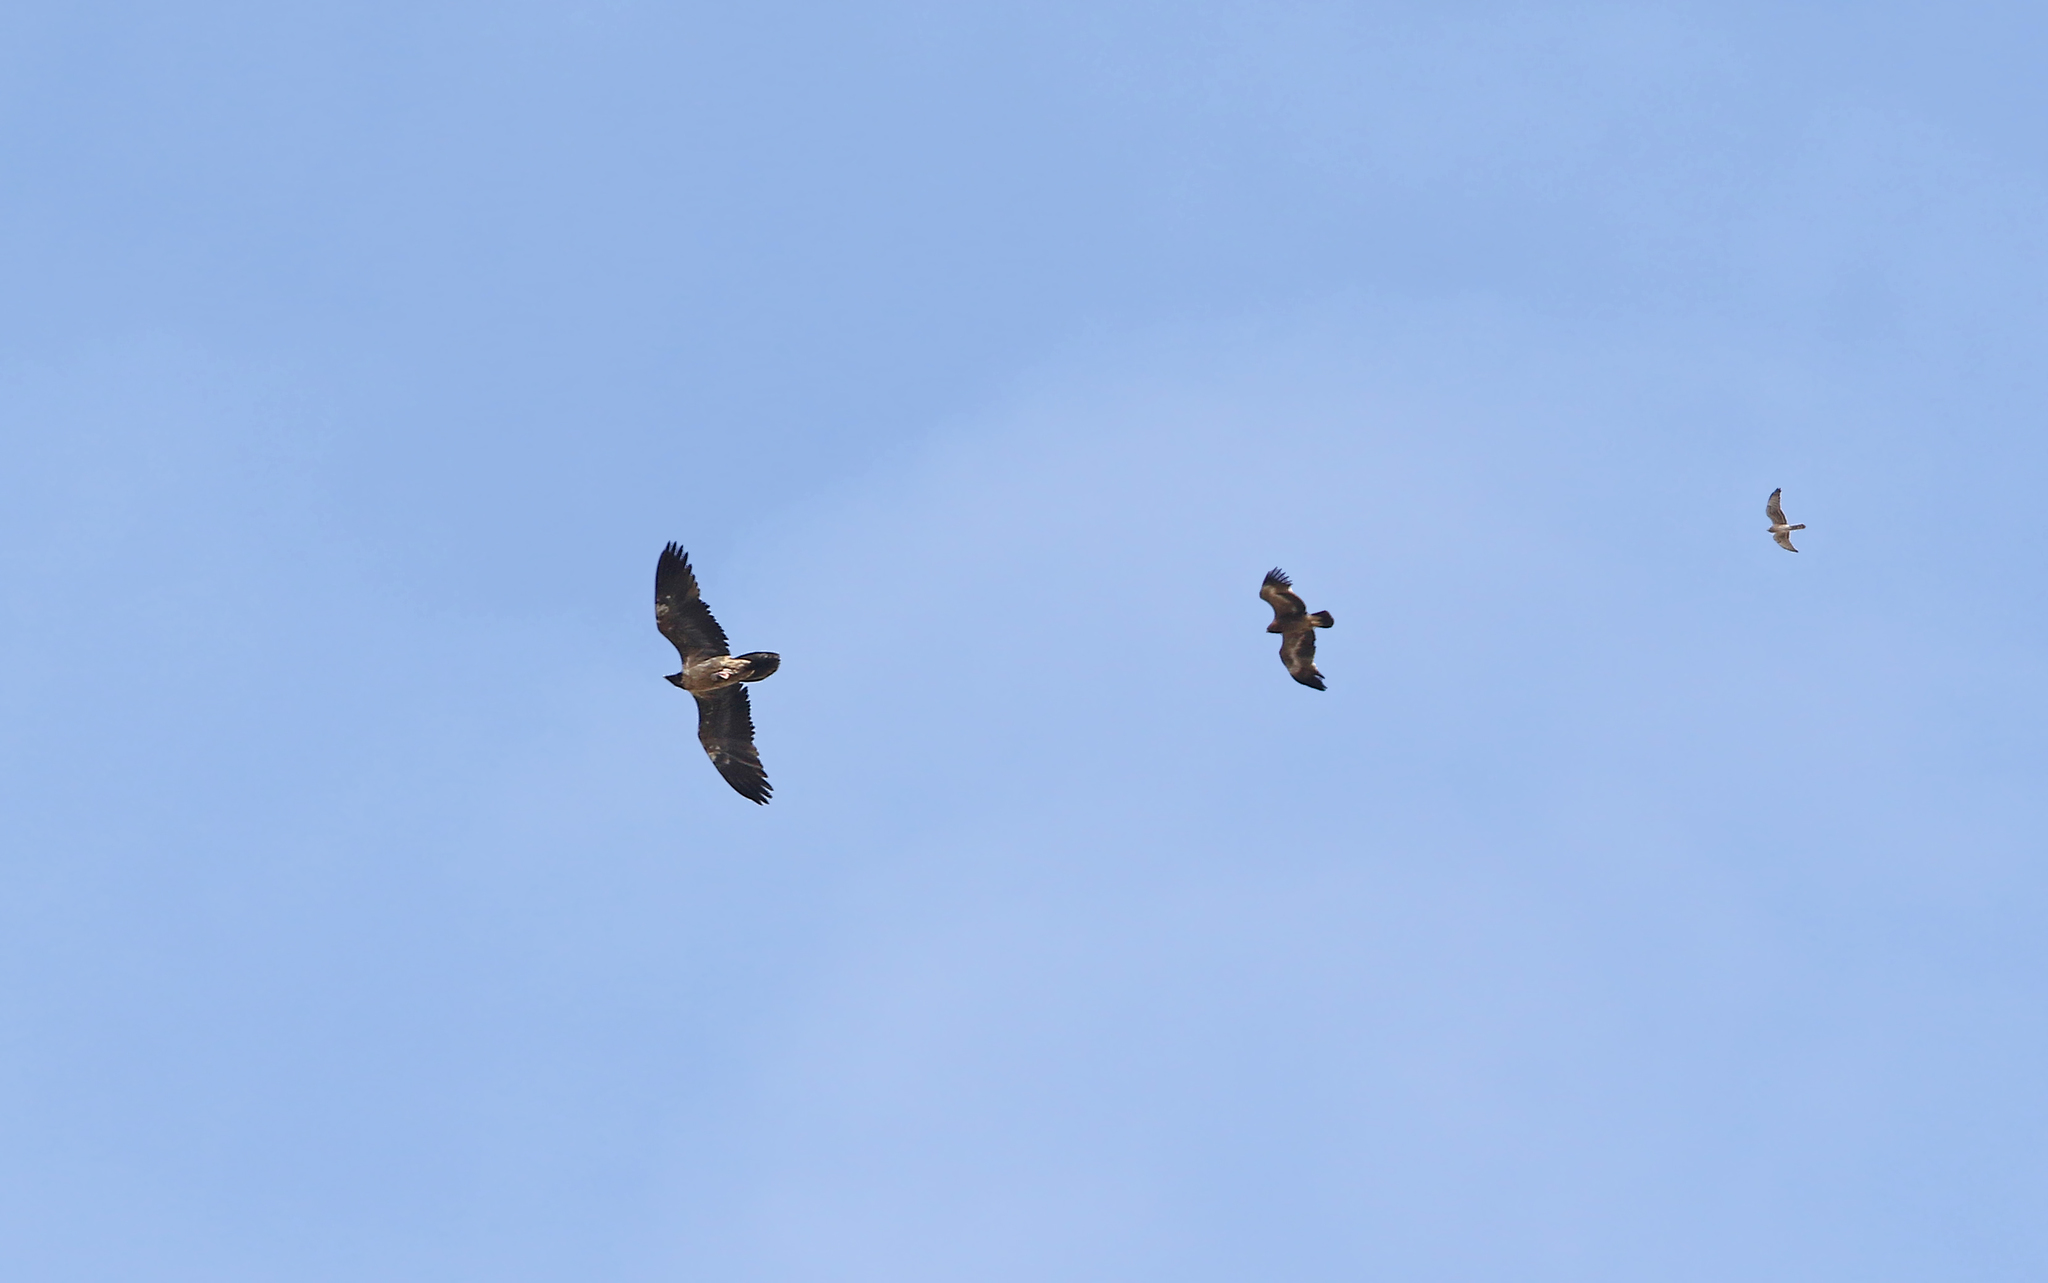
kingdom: Animalia
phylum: Chordata
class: Aves
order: Accipitriformes
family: Accipitridae
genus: Gypaetus
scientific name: Gypaetus barbatus
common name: Bearded vulture
